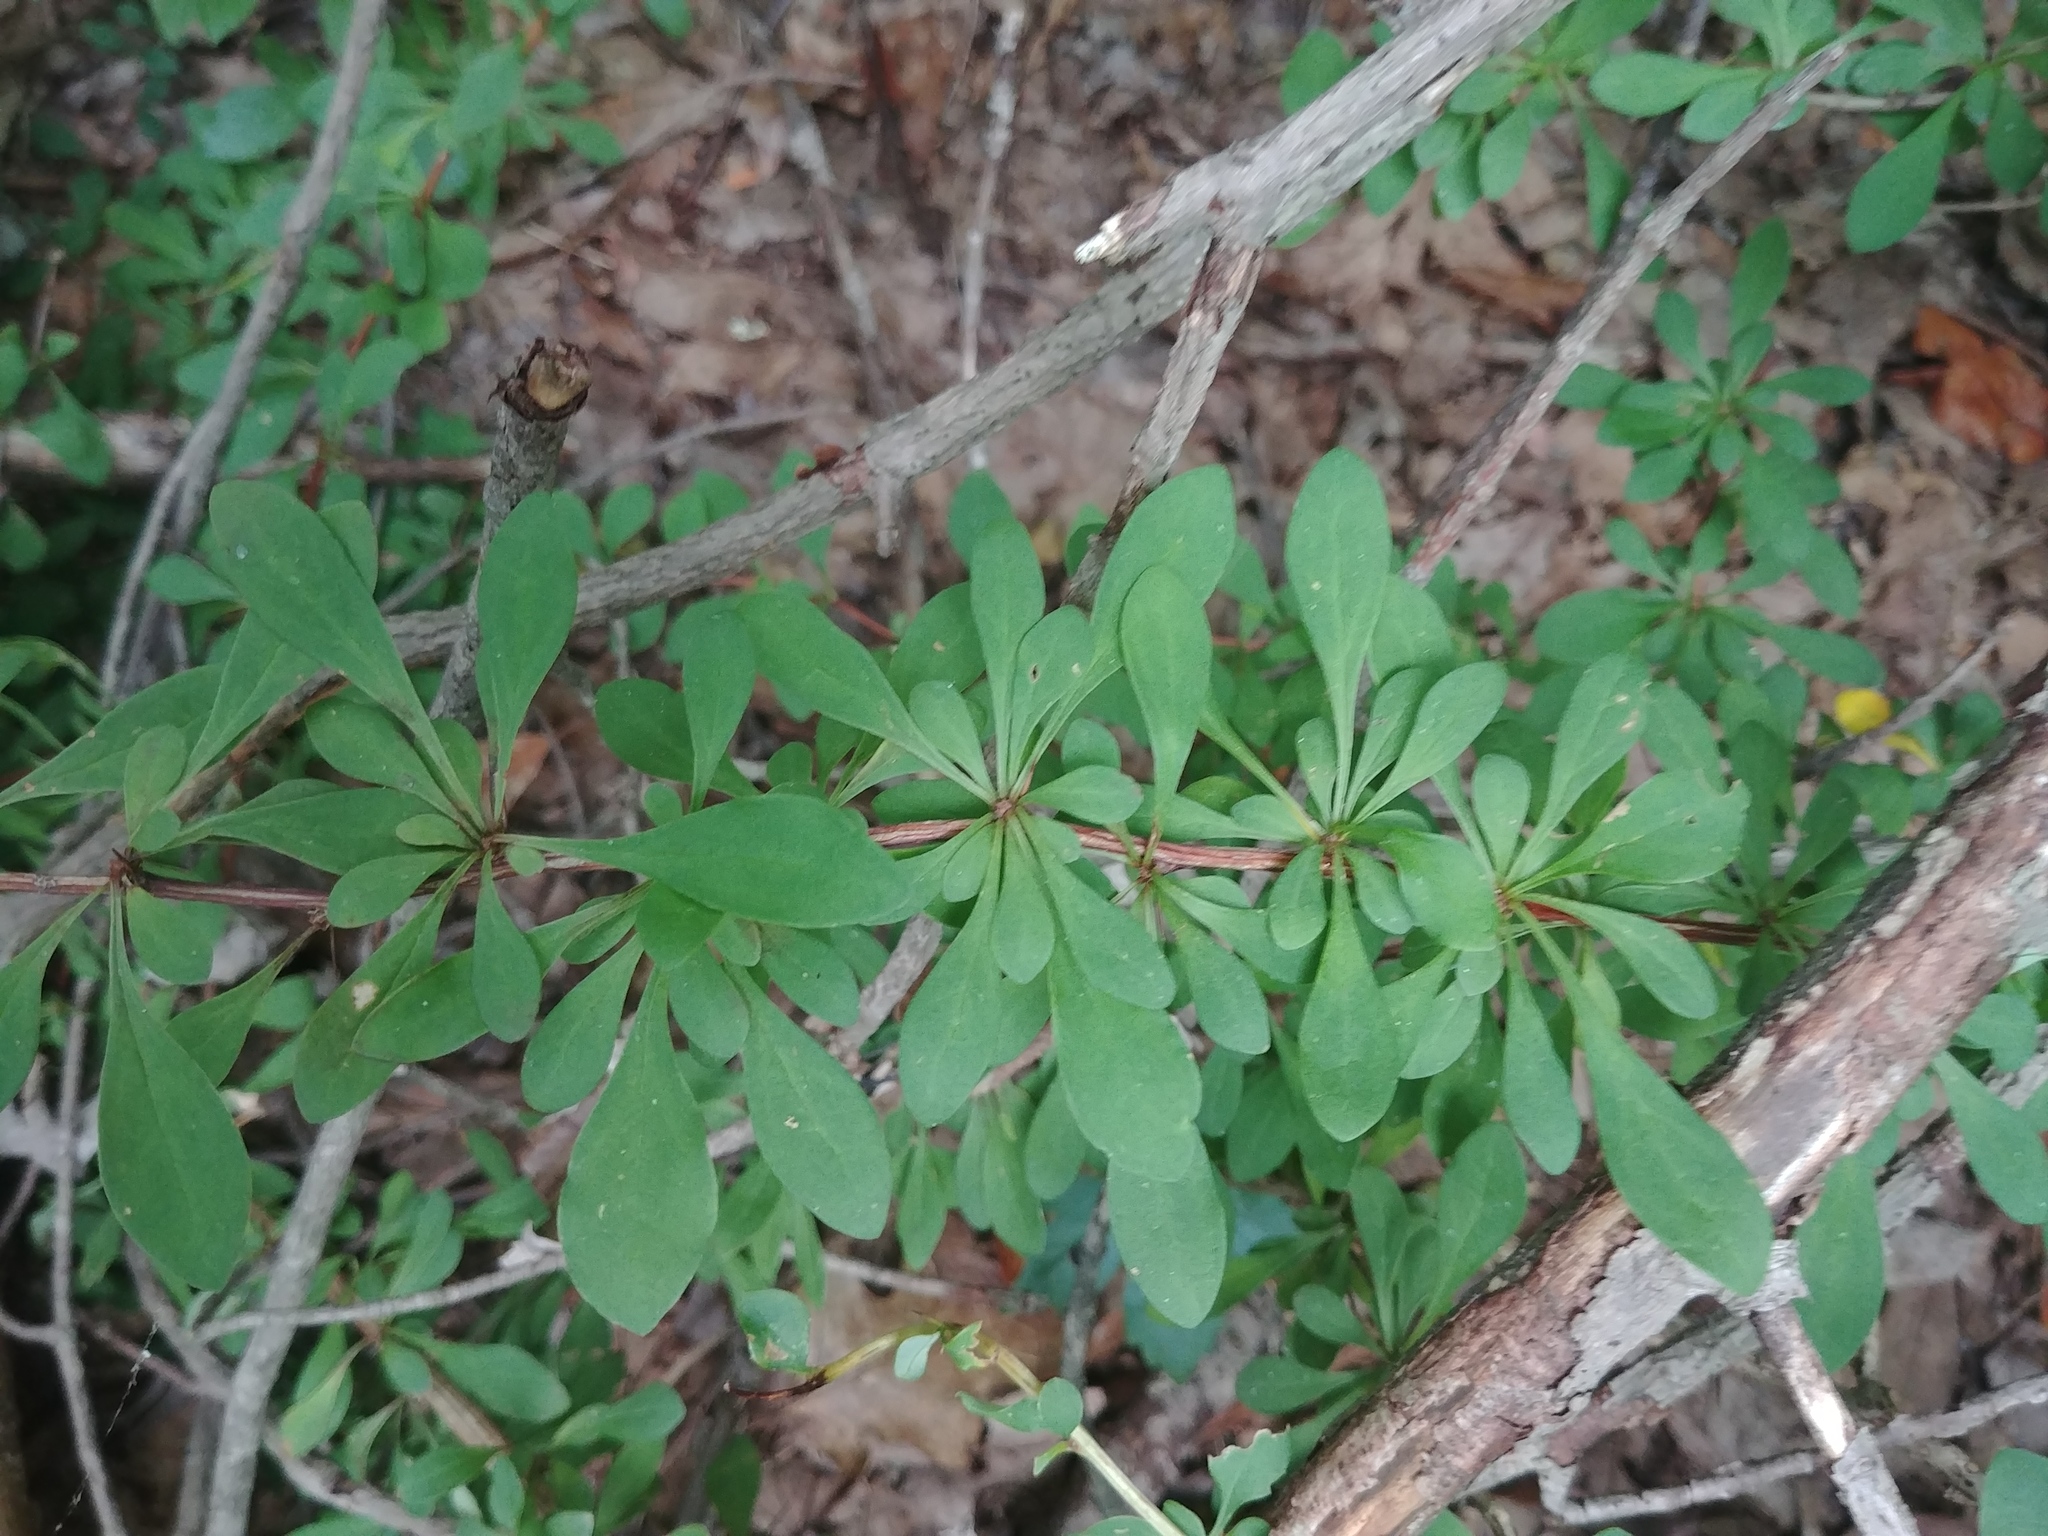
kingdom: Plantae
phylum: Tracheophyta
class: Magnoliopsida
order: Ranunculales
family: Berberidaceae
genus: Berberis
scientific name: Berberis thunbergii
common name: Japanese barberry
